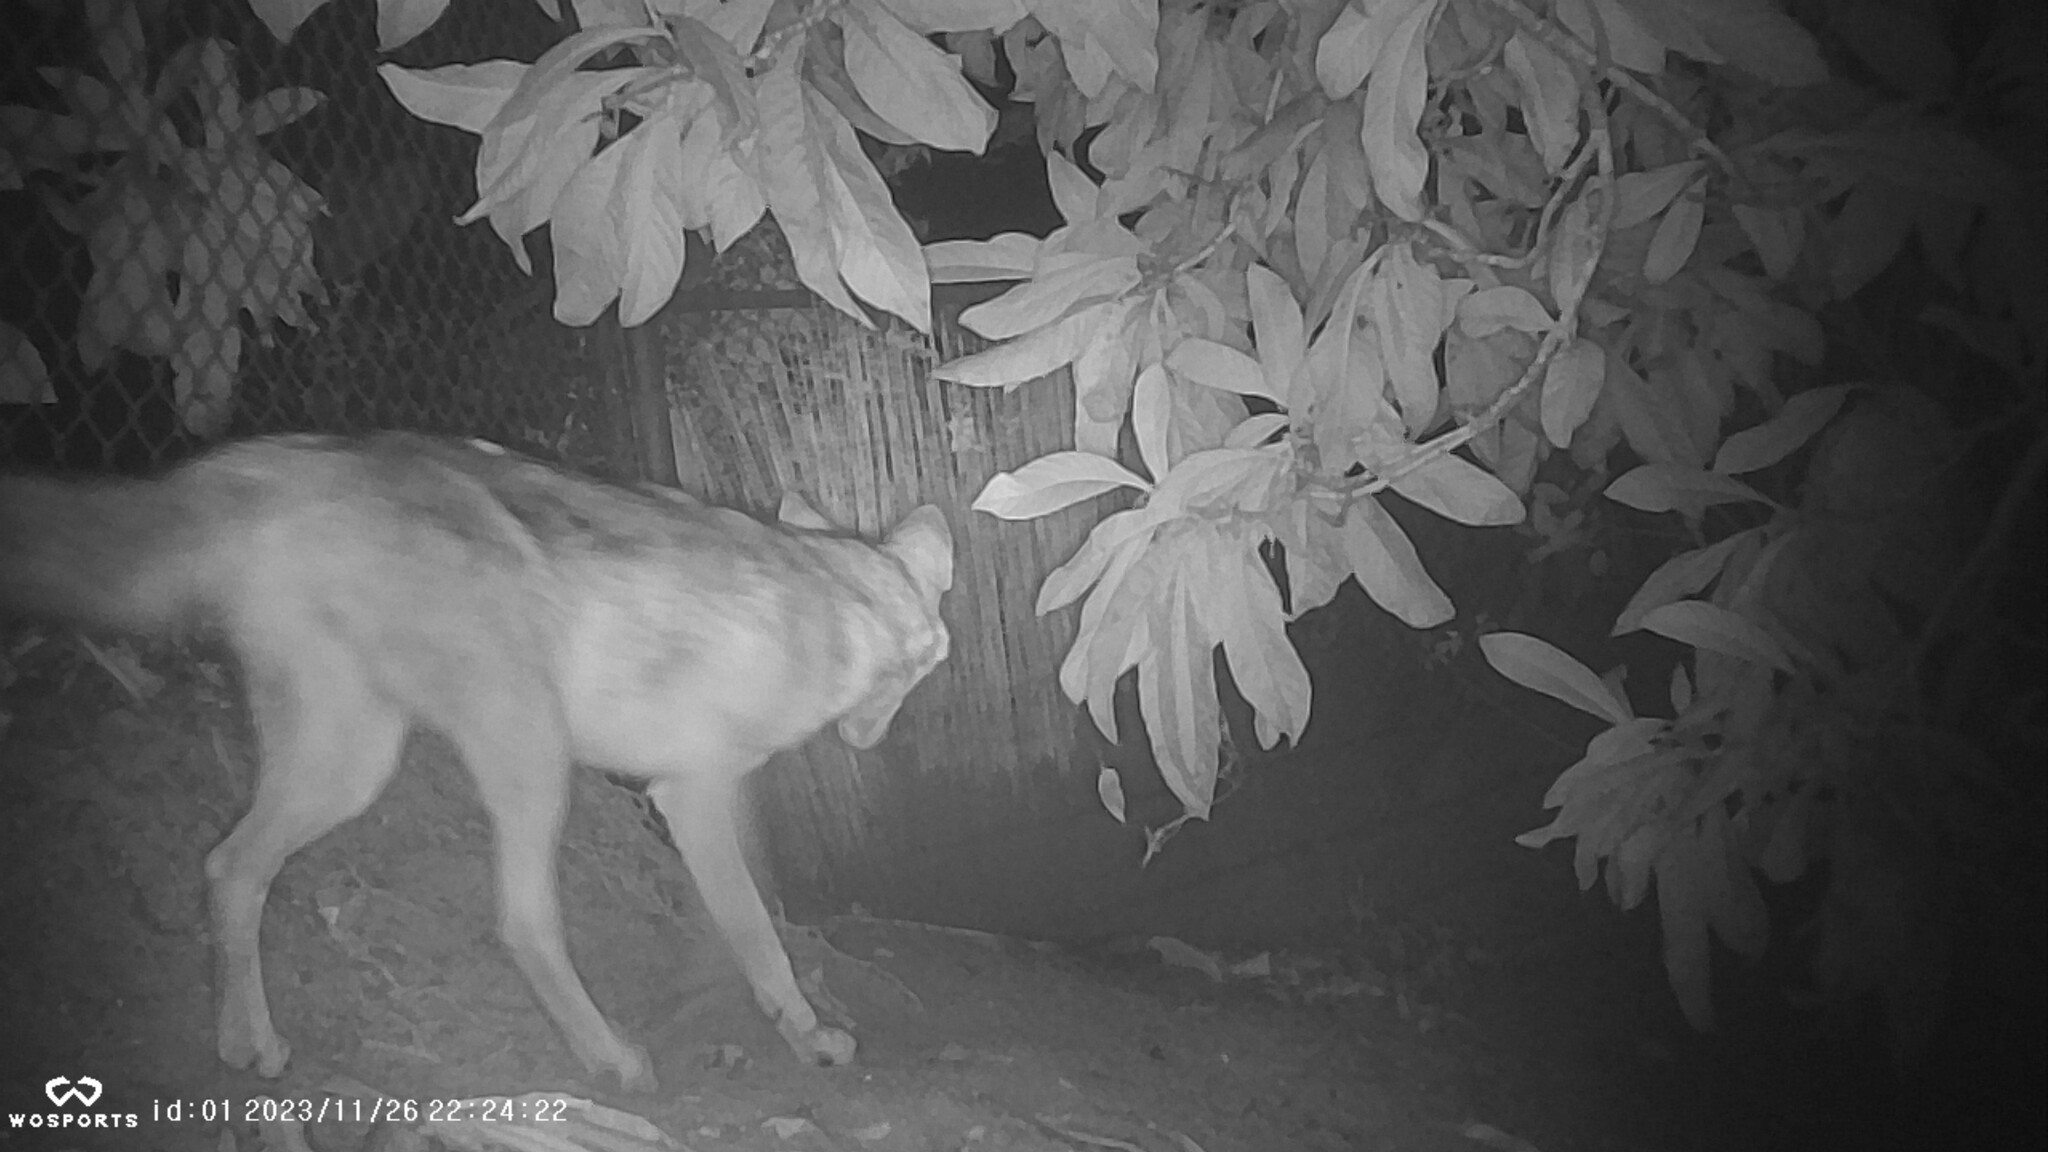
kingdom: Animalia
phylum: Chordata
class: Mammalia
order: Carnivora
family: Canidae
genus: Canis
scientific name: Canis latrans
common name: Coyote
